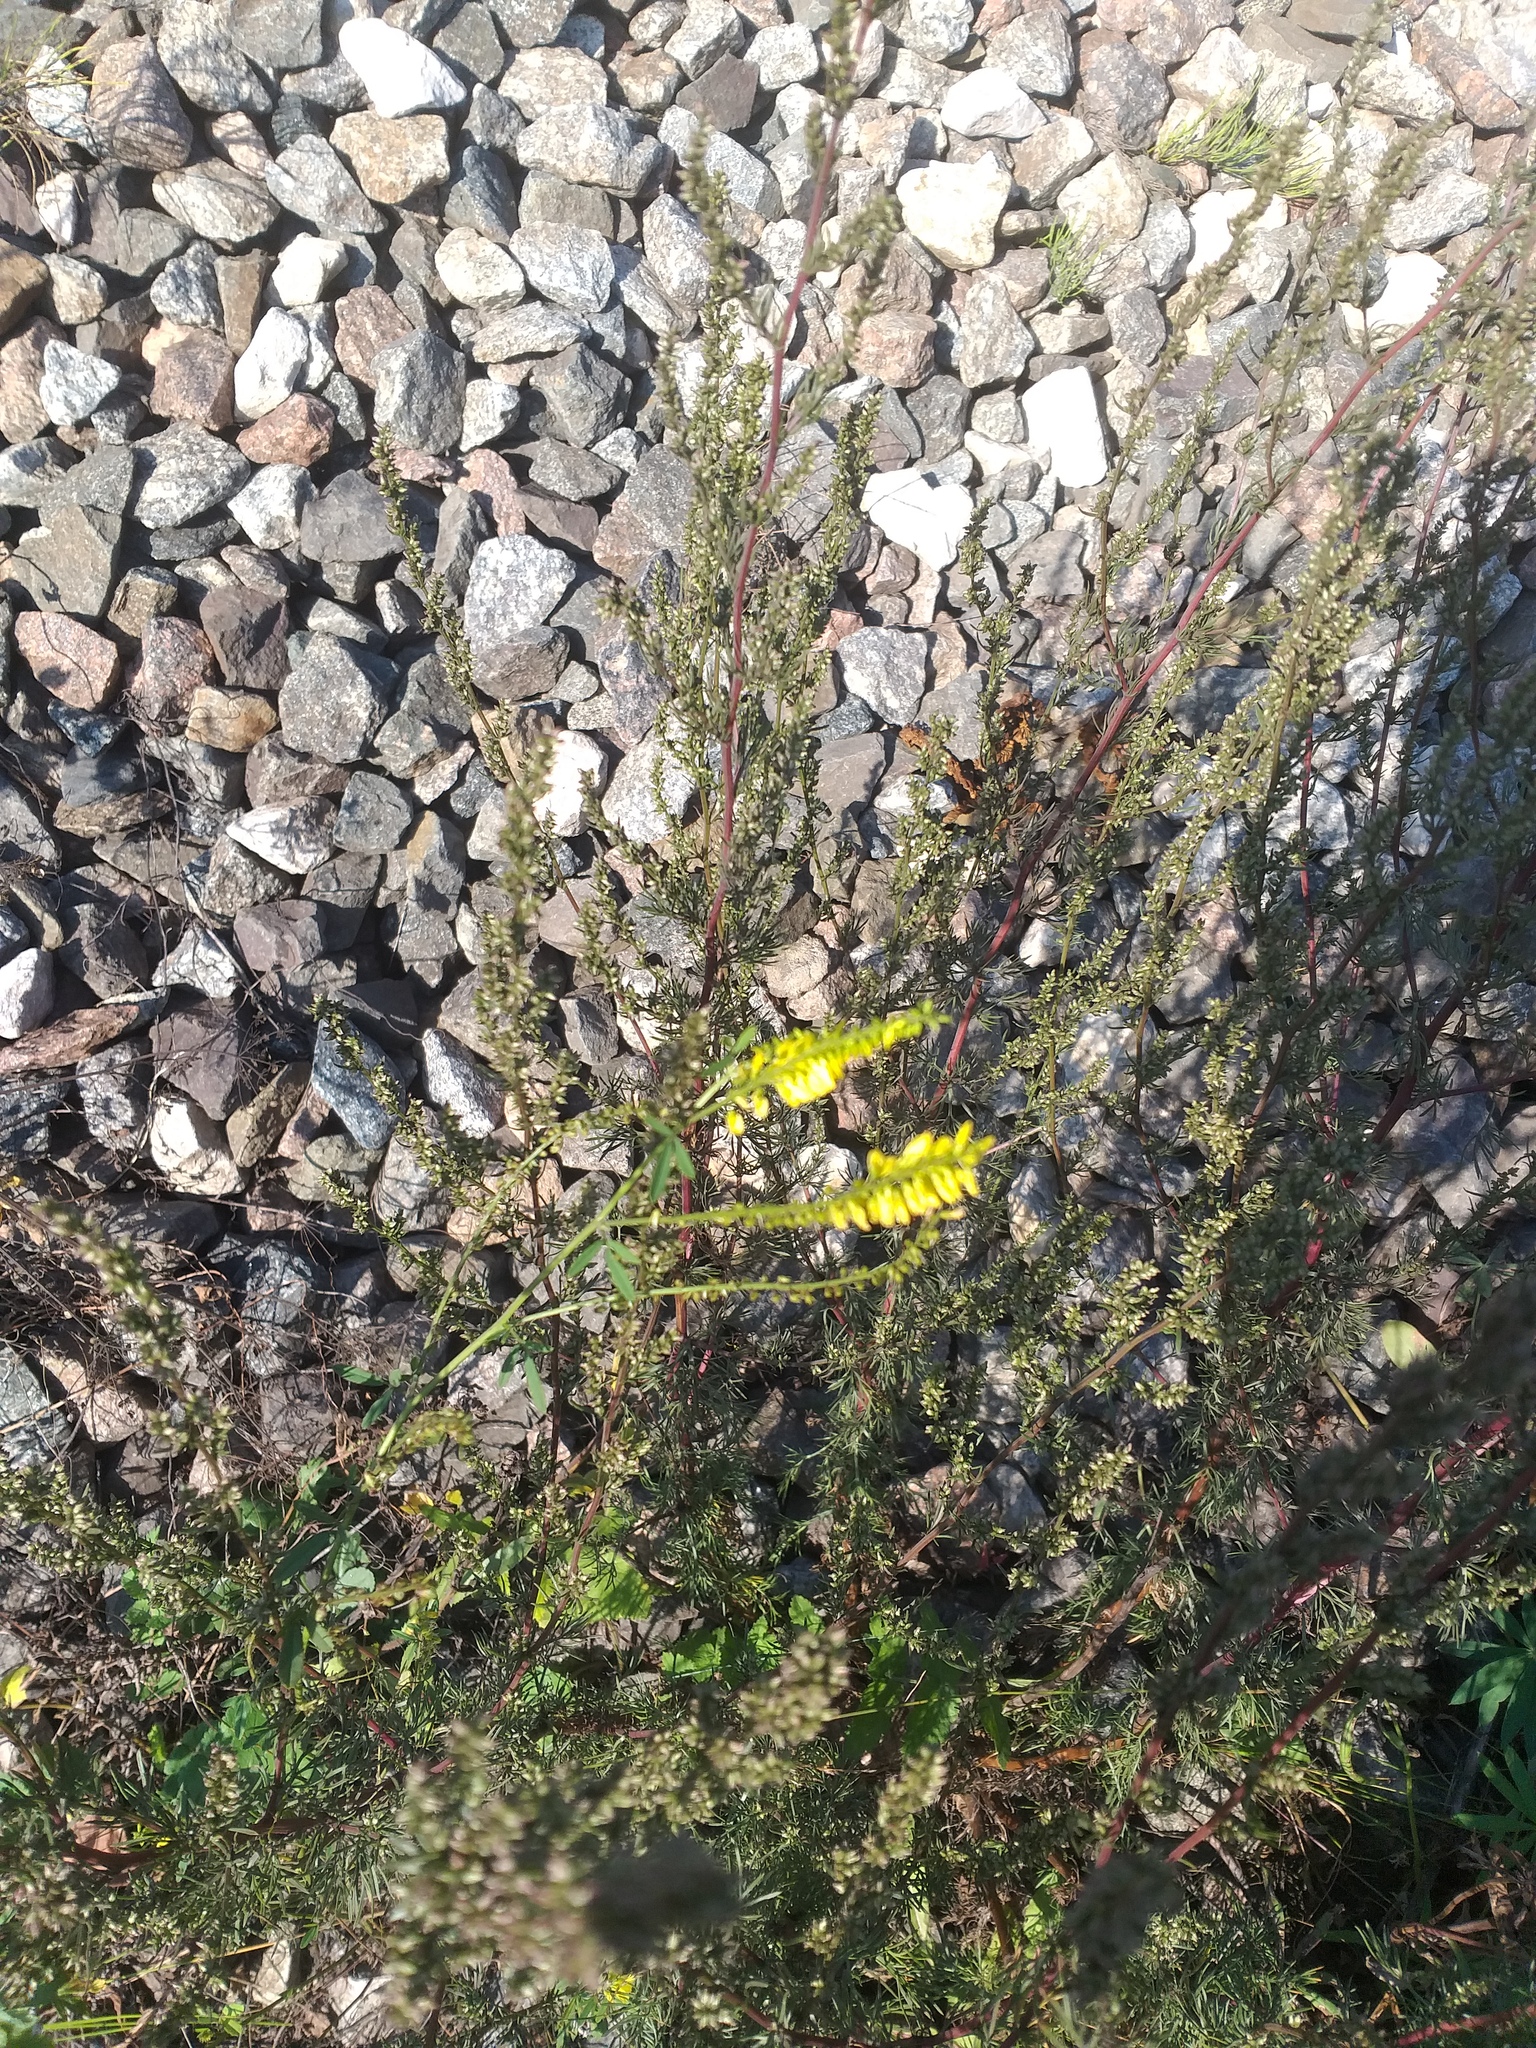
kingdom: Plantae
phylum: Tracheophyta
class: Magnoliopsida
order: Fabales
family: Fabaceae
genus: Melilotus
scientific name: Melilotus officinalis
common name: Sweetclover
